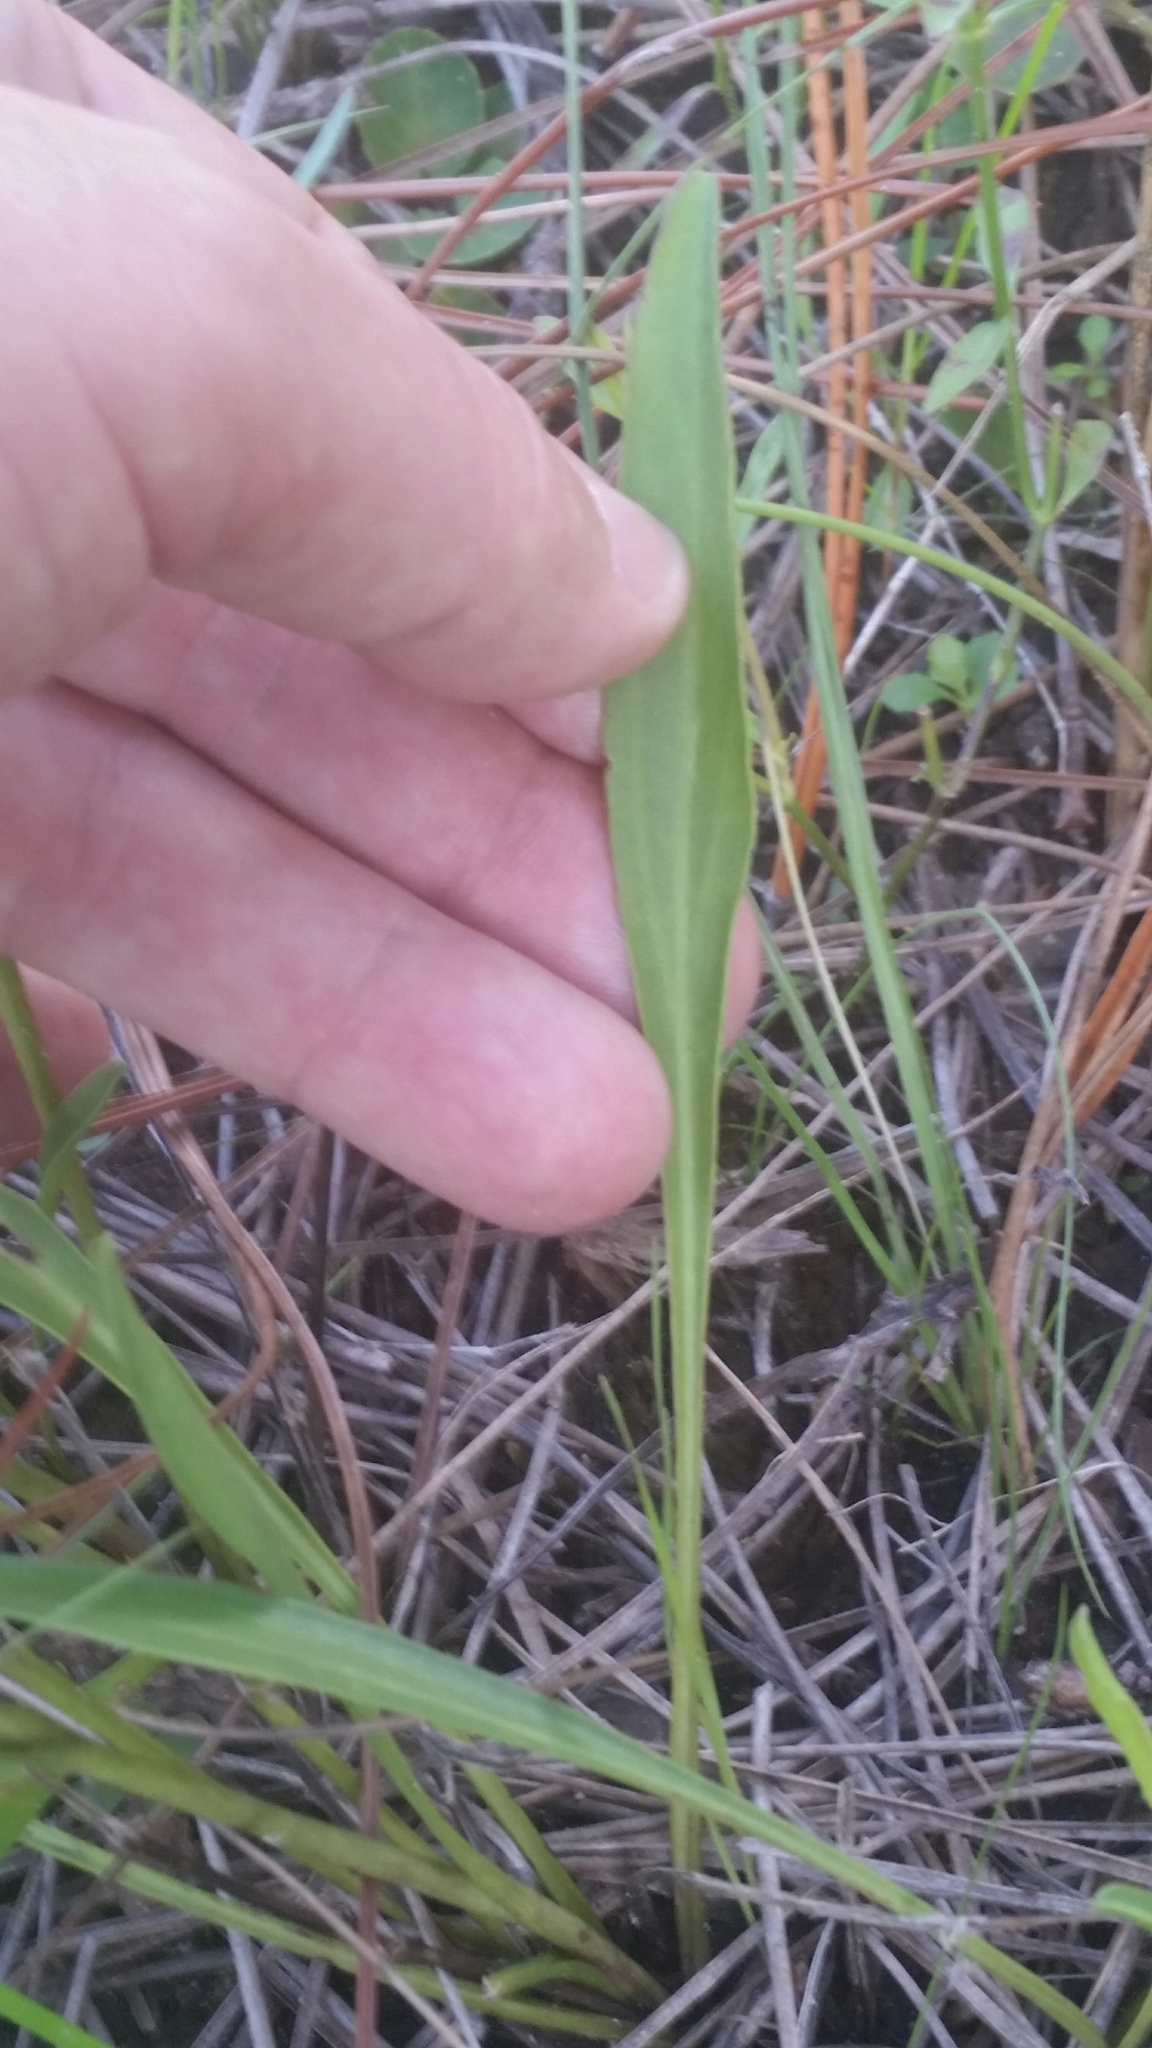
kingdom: Plantae
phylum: Tracheophyta
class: Magnoliopsida
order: Asterales
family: Asteraceae
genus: Solidago
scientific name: Solidago virgata
